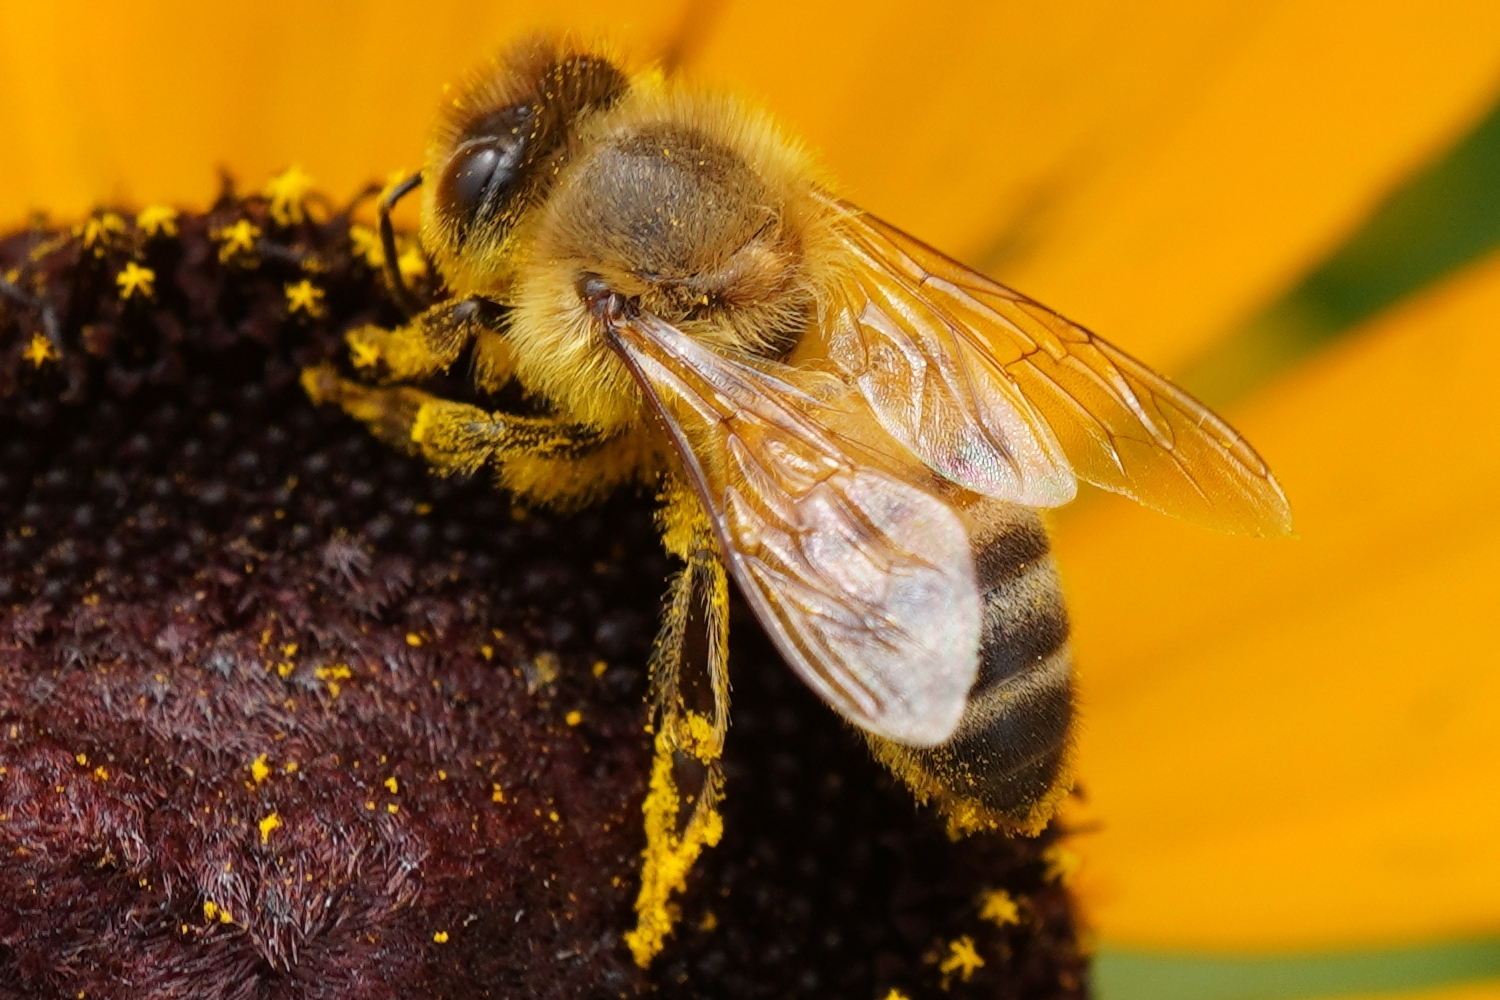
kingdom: Animalia
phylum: Arthropoda
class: Insecta
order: Hymenoptera
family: Apidae
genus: Apis
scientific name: Apis mellifera
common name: Honey bee
